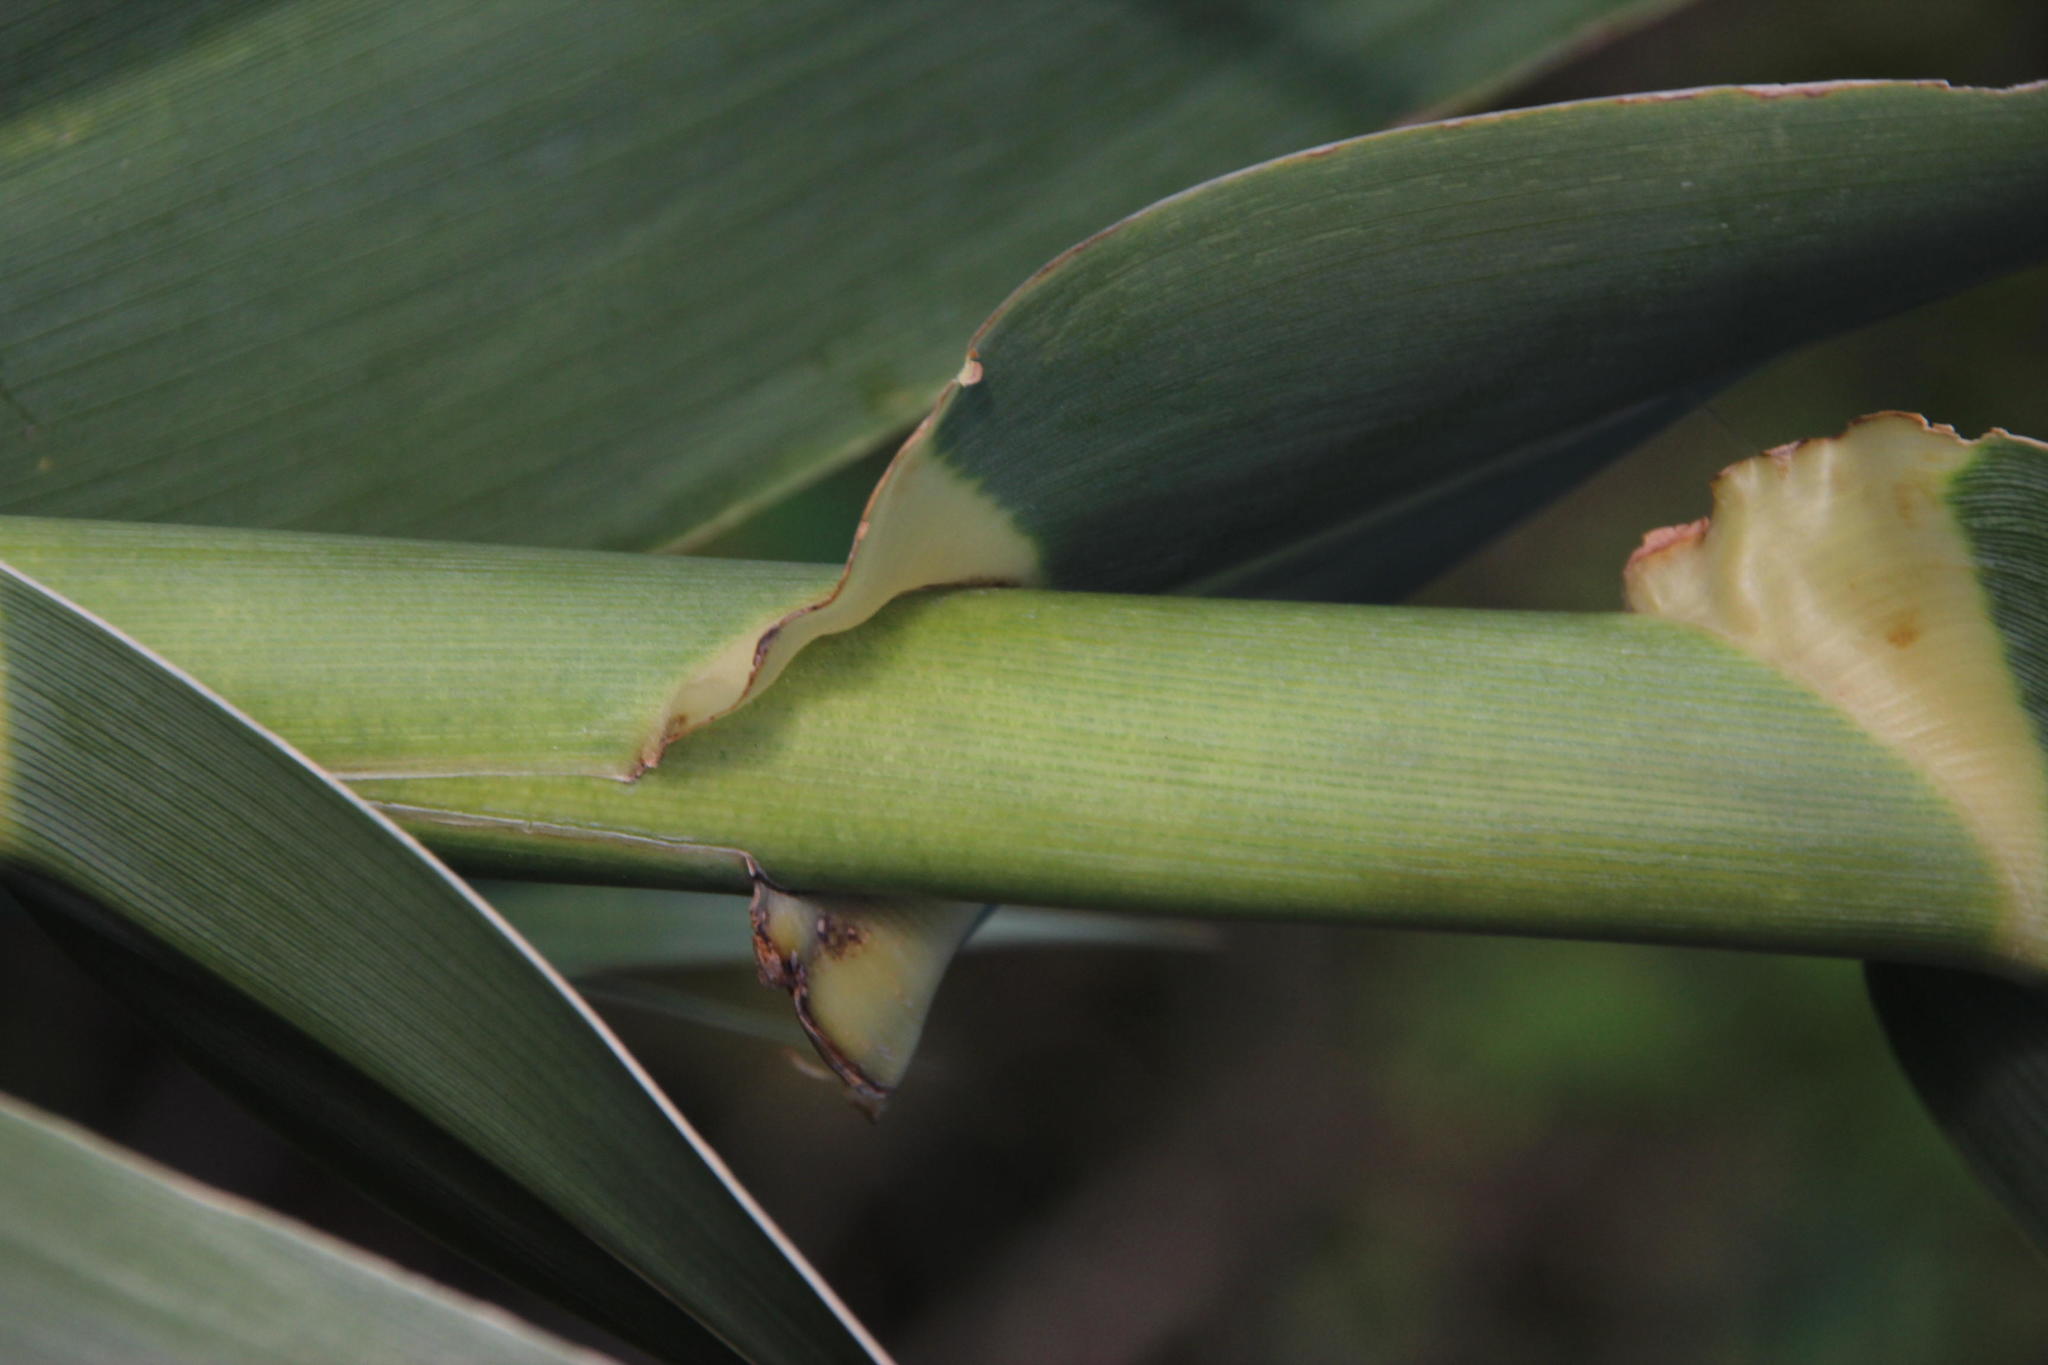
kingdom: Plantae
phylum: Tracheophyta
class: Liliopsida
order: Poales
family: Poaceae
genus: Arundo
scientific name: Arundo donax
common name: Giant reed
